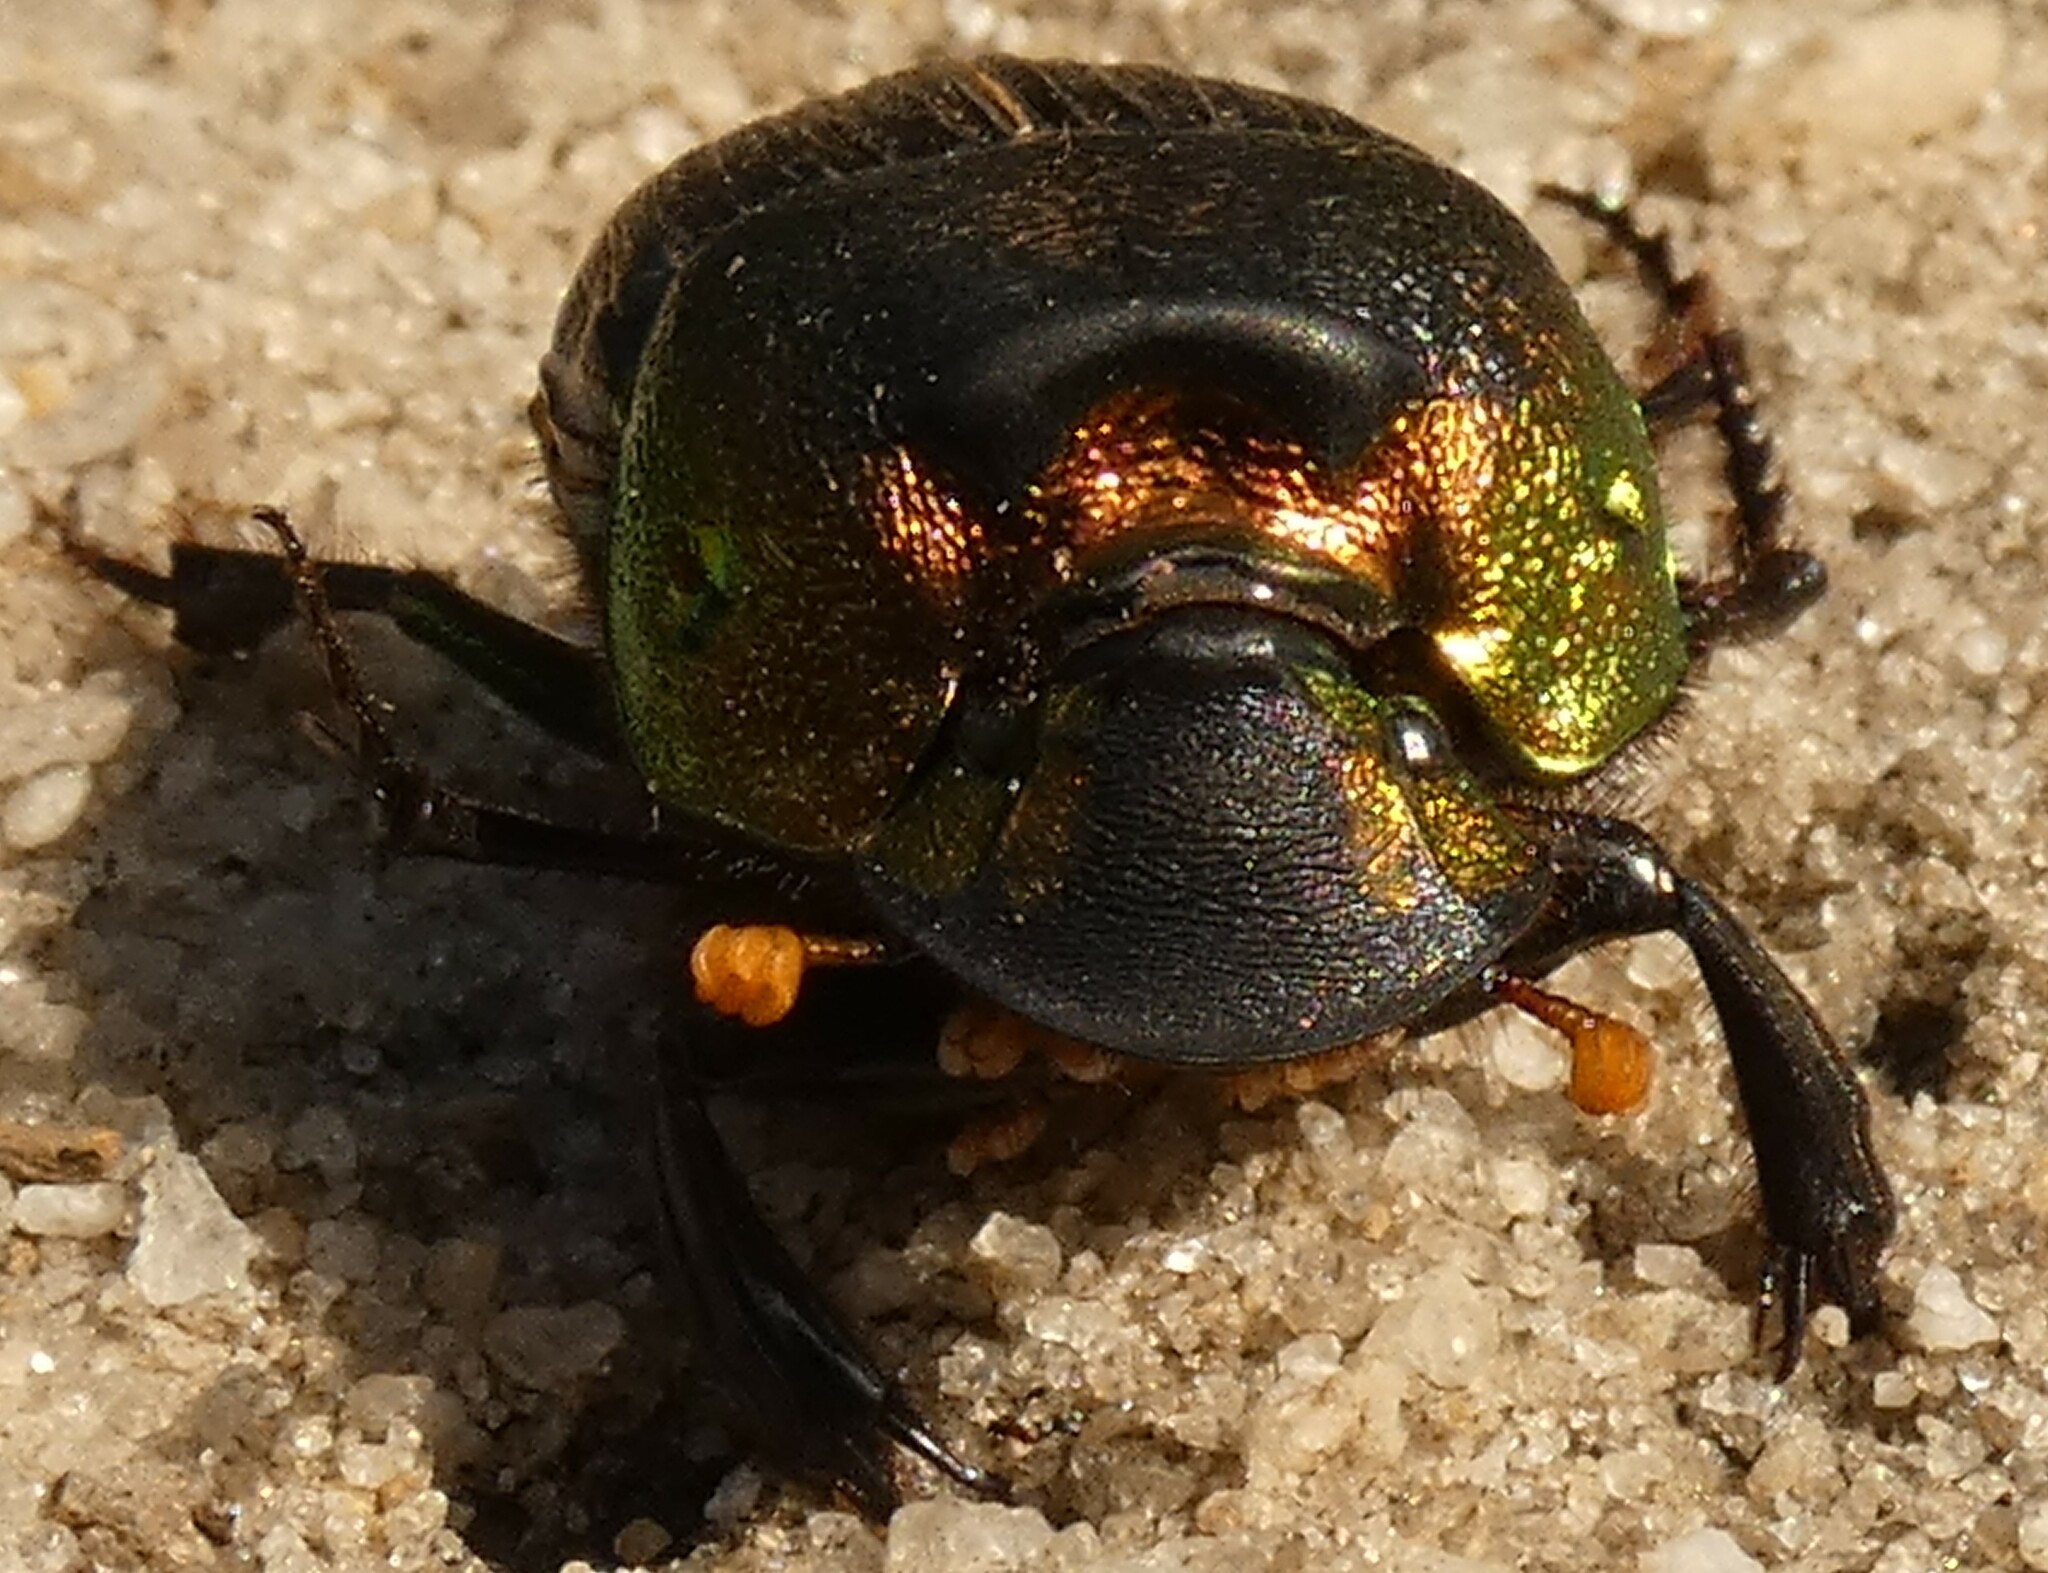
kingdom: Animalia
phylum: Arthropoda
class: Insecta
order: Coleoptera
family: Scarabaeidae
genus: Phanaeus
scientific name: Phanaeus vindex
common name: Rainbow scarab
